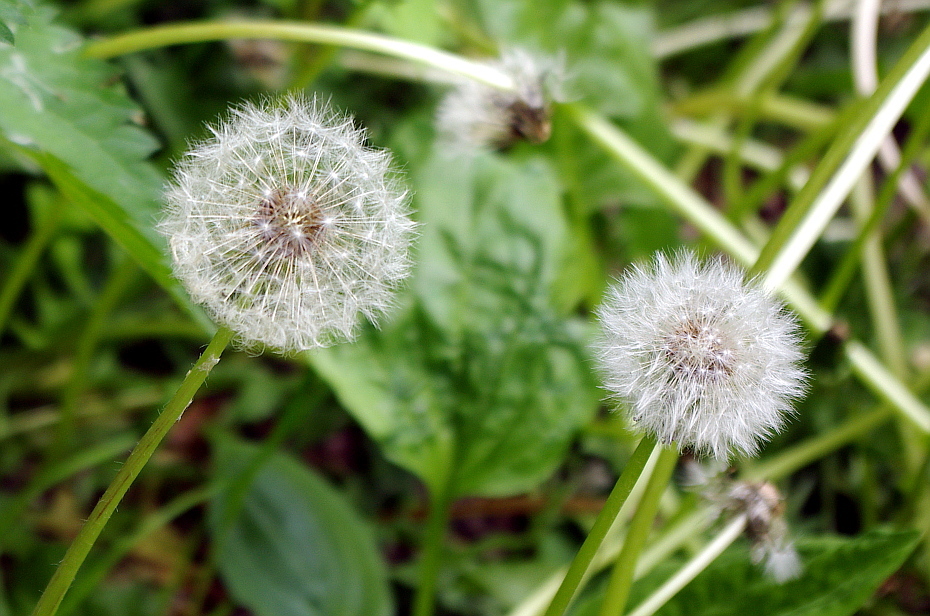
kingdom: Plantae
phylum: Tracheophyta
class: Magnoliopsida
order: Asterales
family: Asteraceae
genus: Taraxacum
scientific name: Taraxacum officinale
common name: Common dandelion
